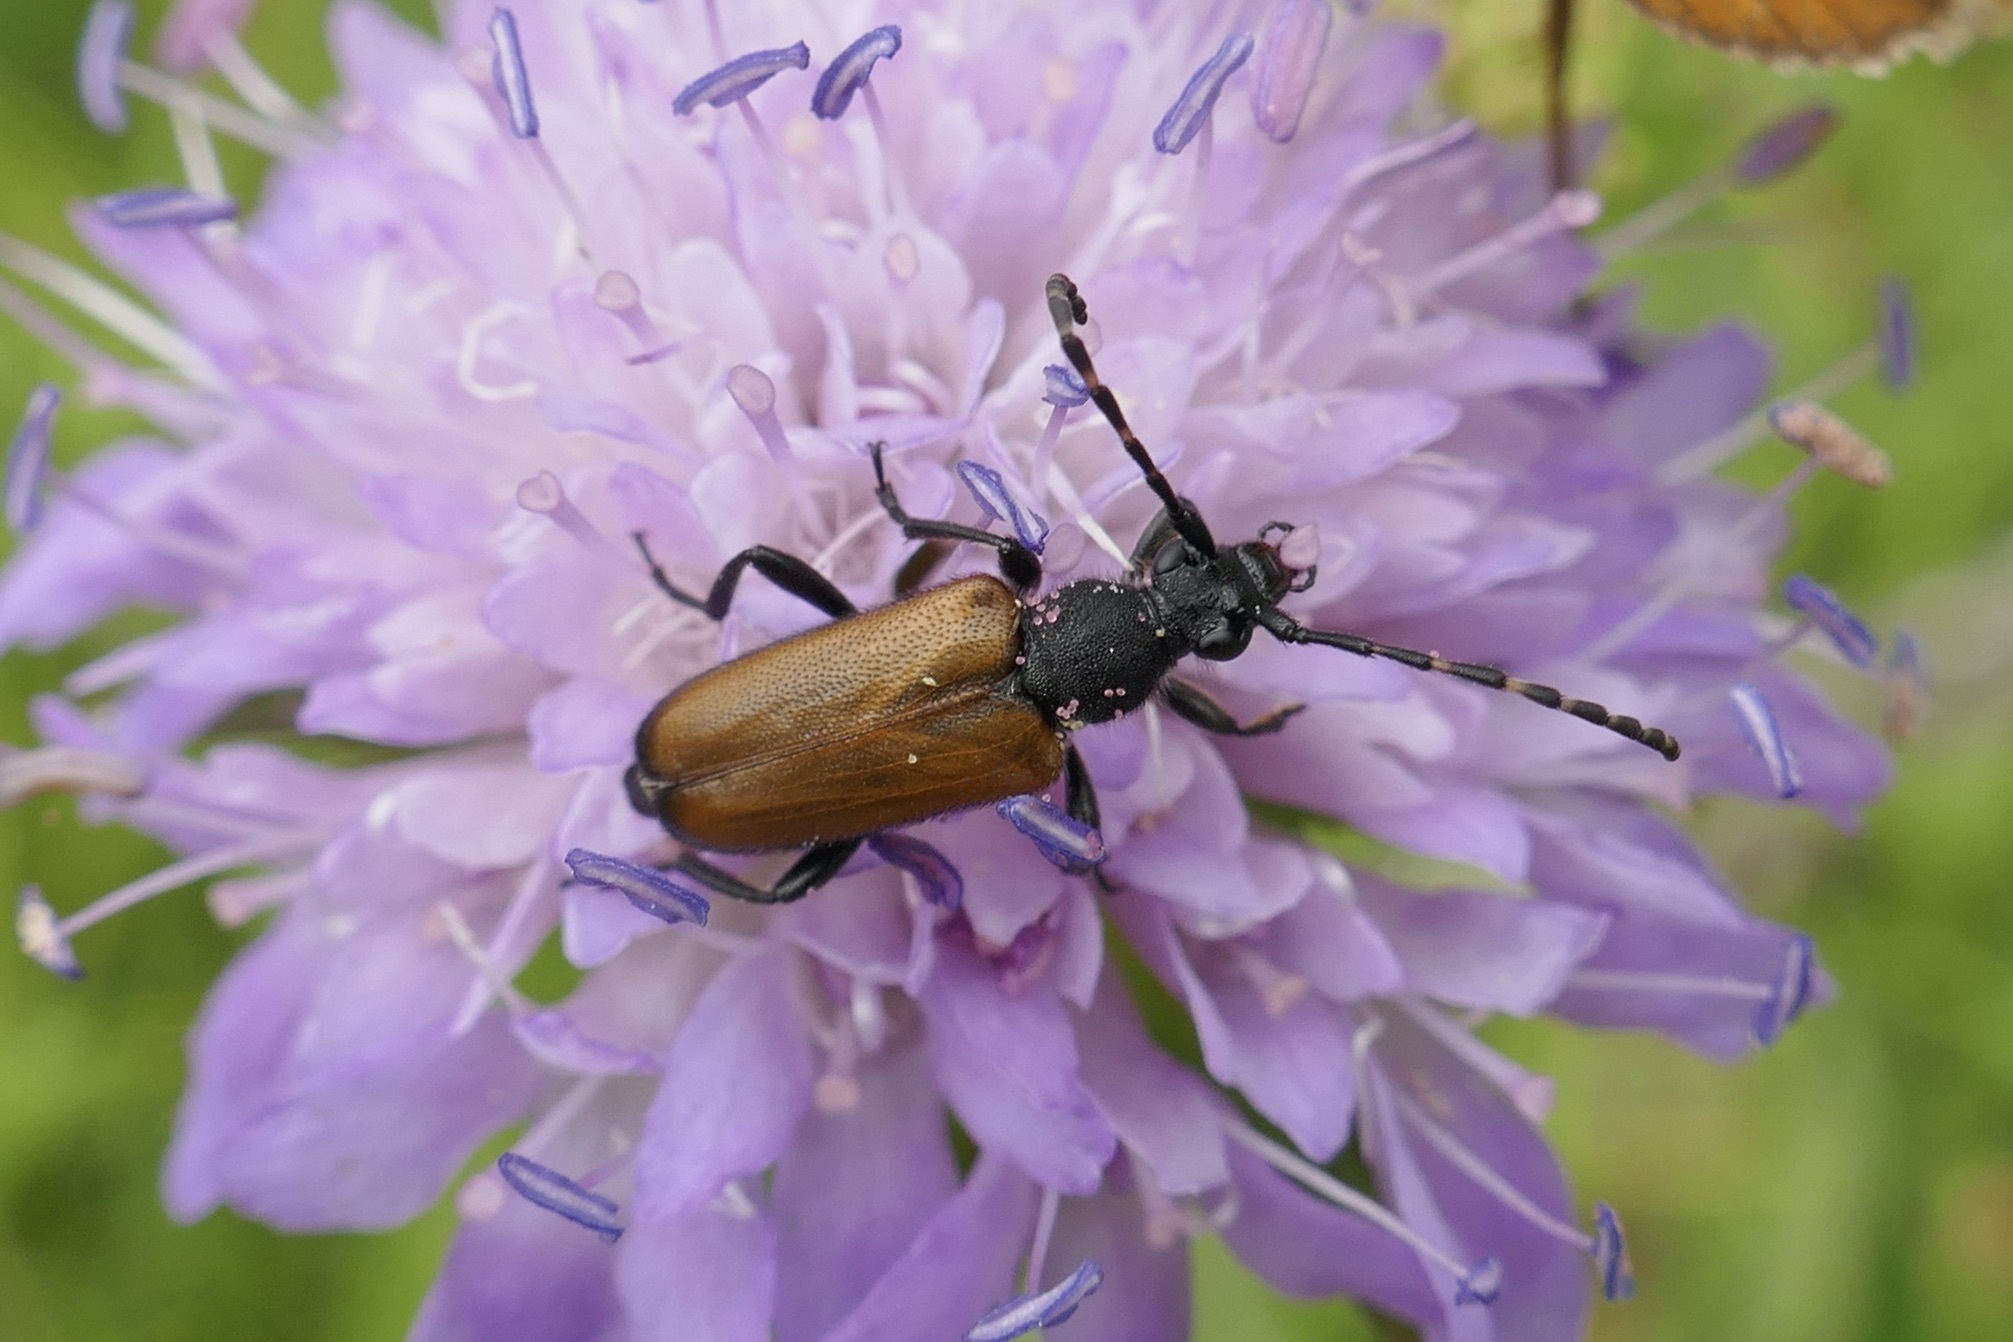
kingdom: Animalia
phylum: Arthropoda
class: Insecta
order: Coleoptera
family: Cerambycidae
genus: Paracorymbia
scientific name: Paracorymbia maculicornis
